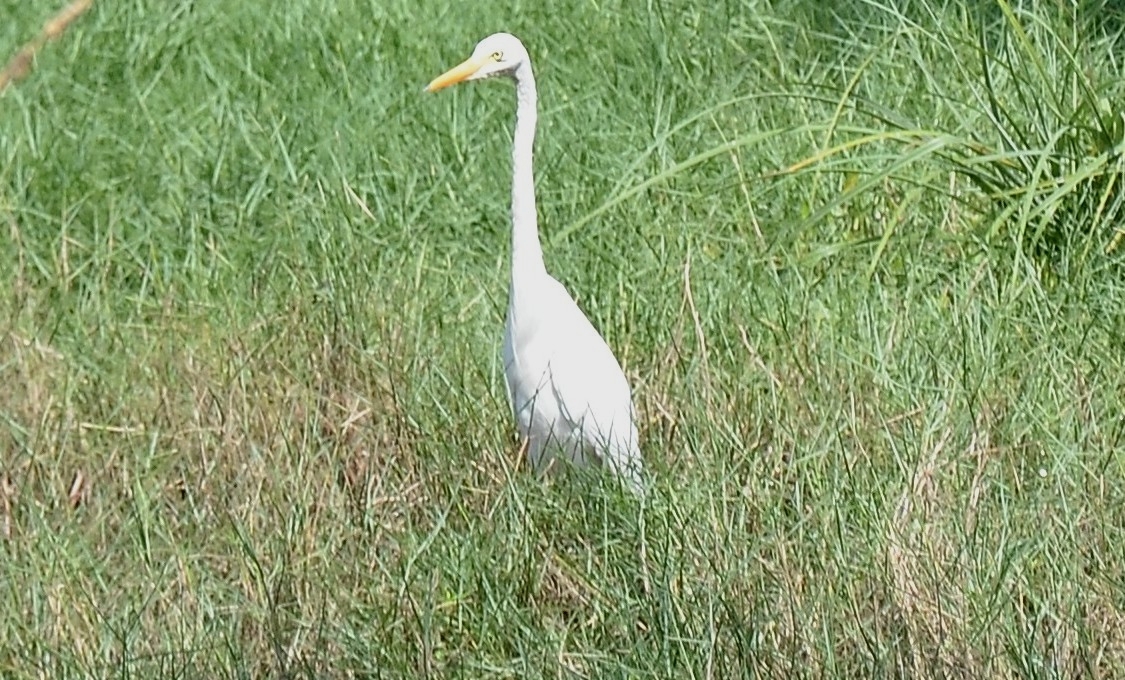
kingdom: Animalia
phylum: Chordata
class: Aves
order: Pelecaniformes
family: Ardeidae
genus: Egretta
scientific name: Egretta intermedia
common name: Intermediate egret
